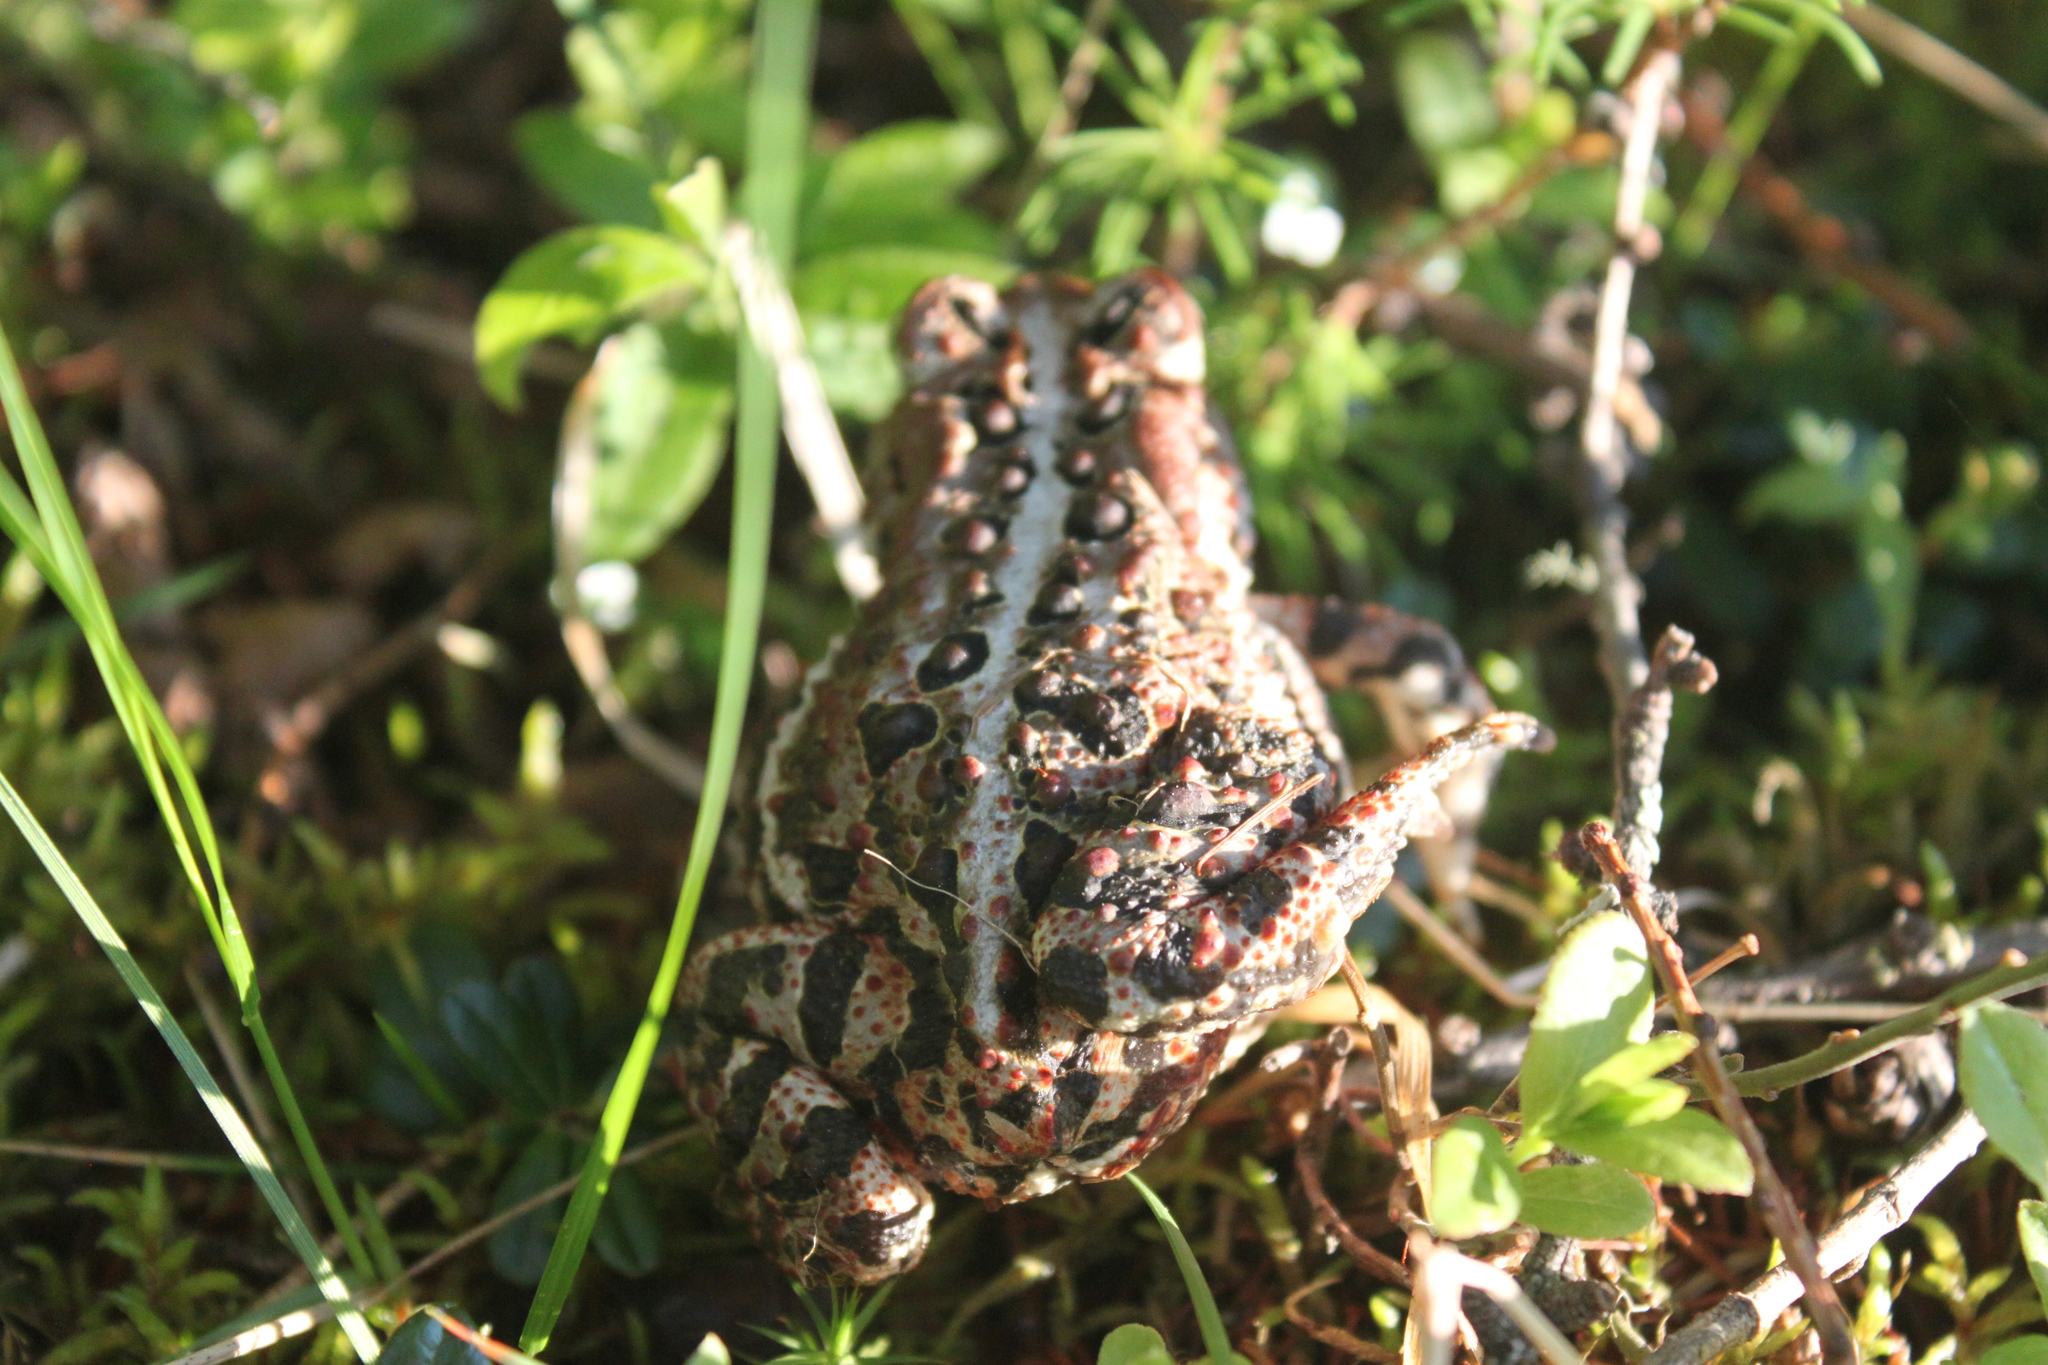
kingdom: Animalia
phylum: Chordata
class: Amphibia
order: Anura
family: Bufonidae
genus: Anaxyrus
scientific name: Anaxyrus americanus
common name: American toad
